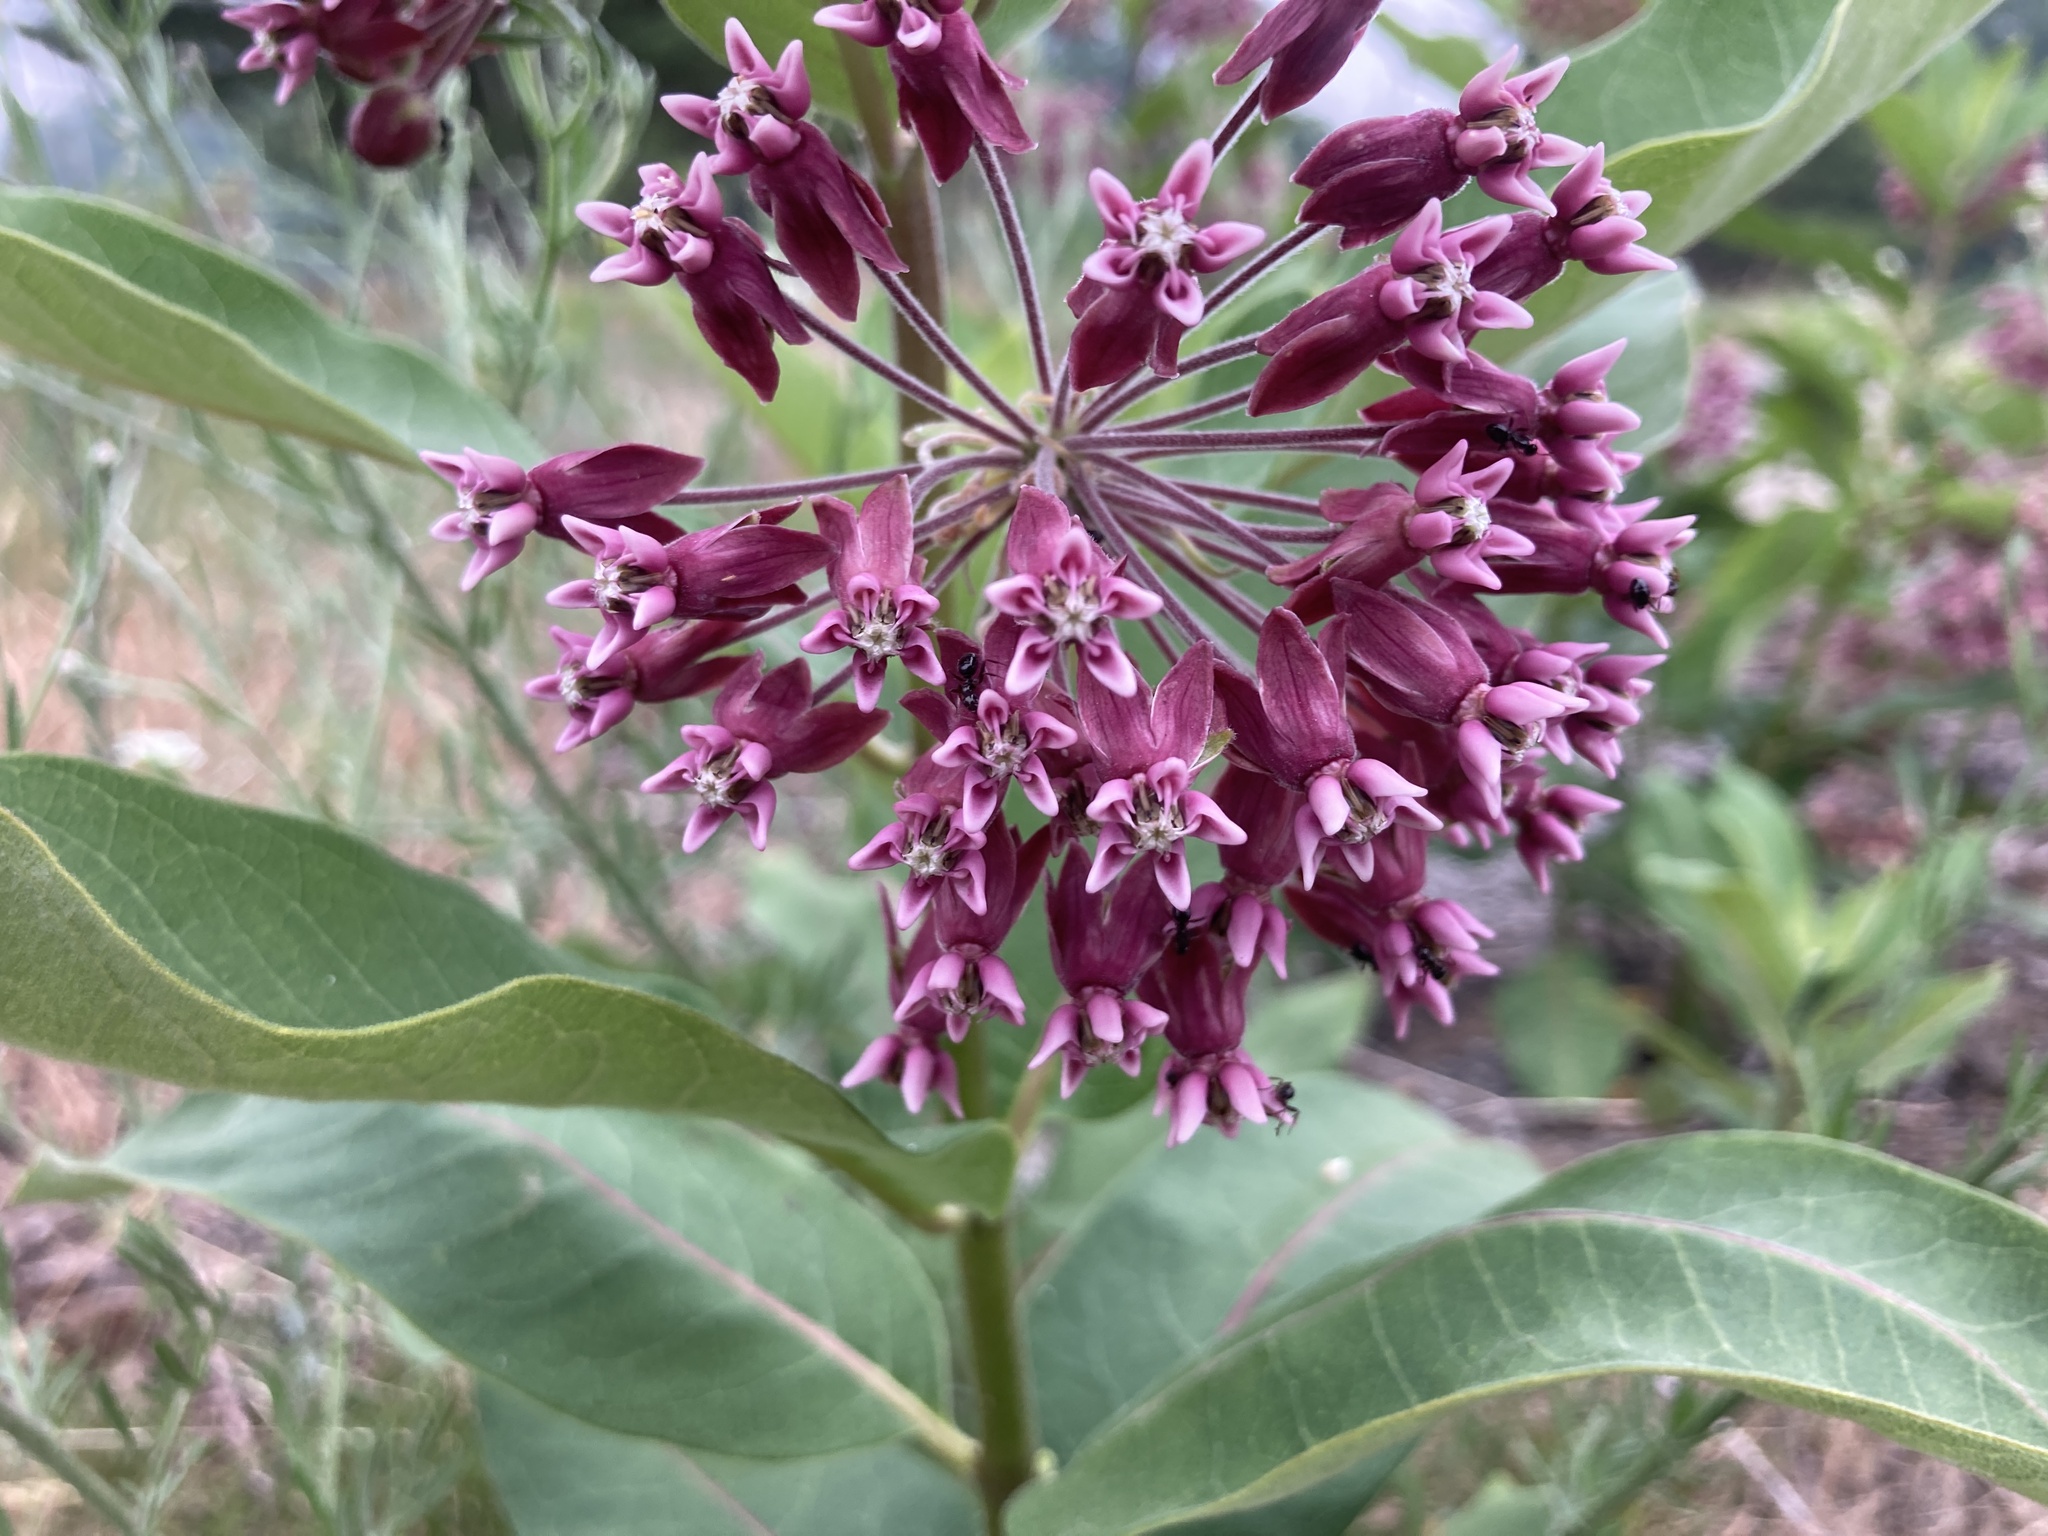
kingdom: Plantae
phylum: Tracheophyta
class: Magnoliopsida
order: Gentianales
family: Apocynaceae
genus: Asclepias
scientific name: Asclepias syriaca
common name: Common milkweed
